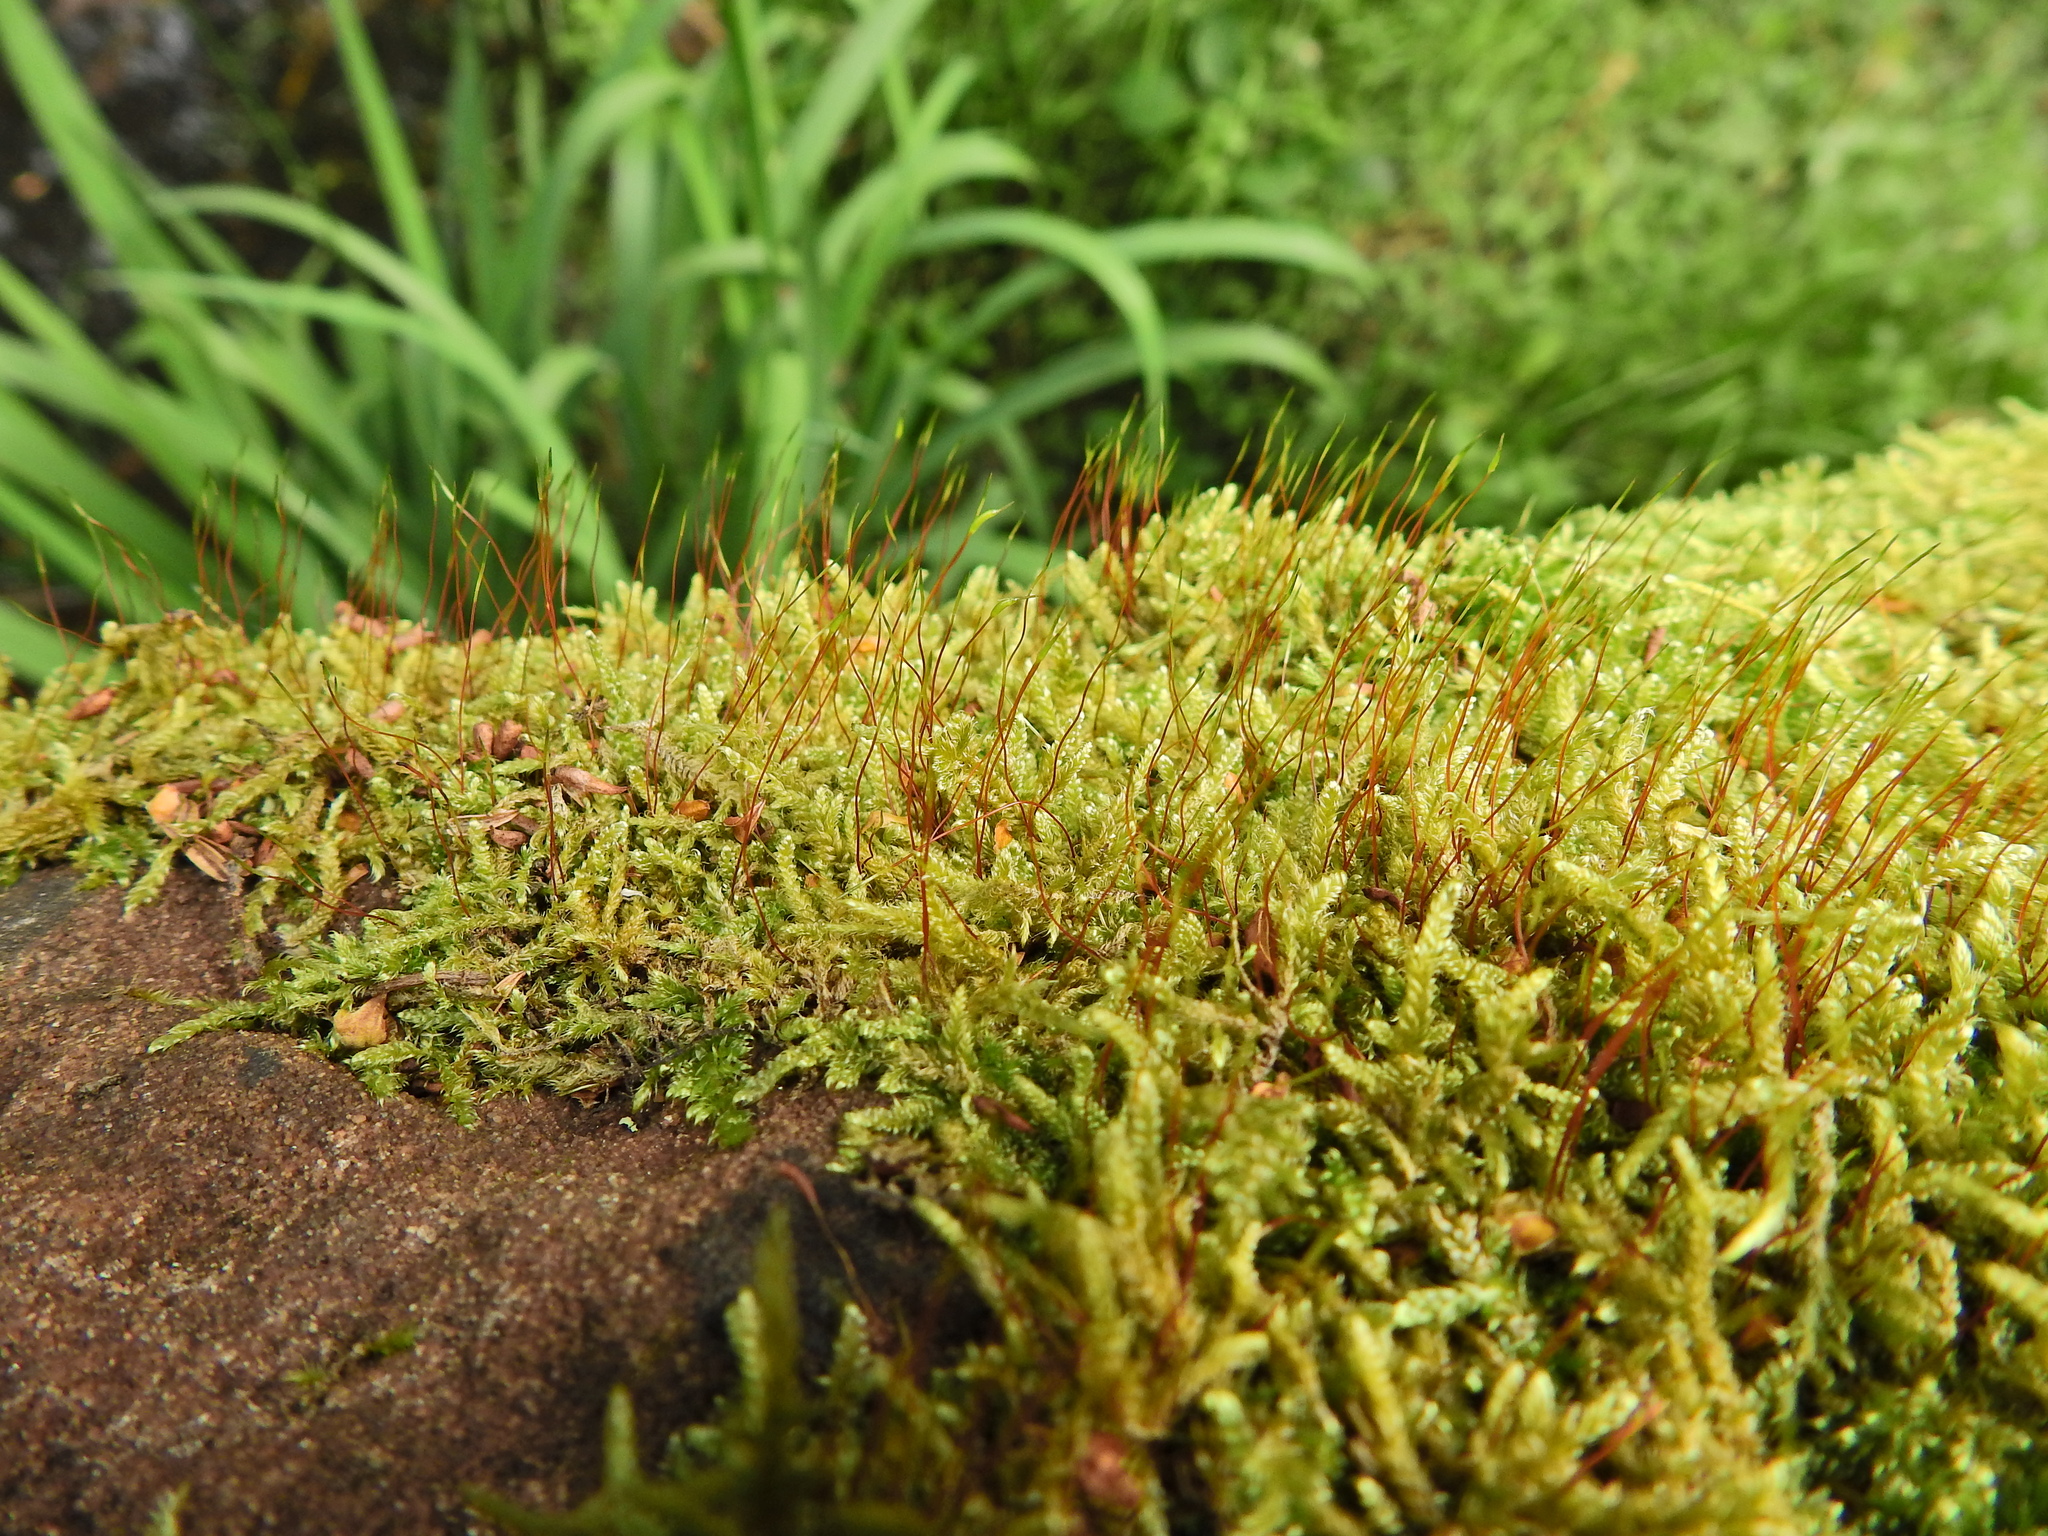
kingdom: Plantae
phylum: Bryophyta
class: Bryopsida
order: Hypnales
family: Hypnaceae
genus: Hypnum
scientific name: Hypnum cupressiforme
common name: Cypress-leaved plait-moss
